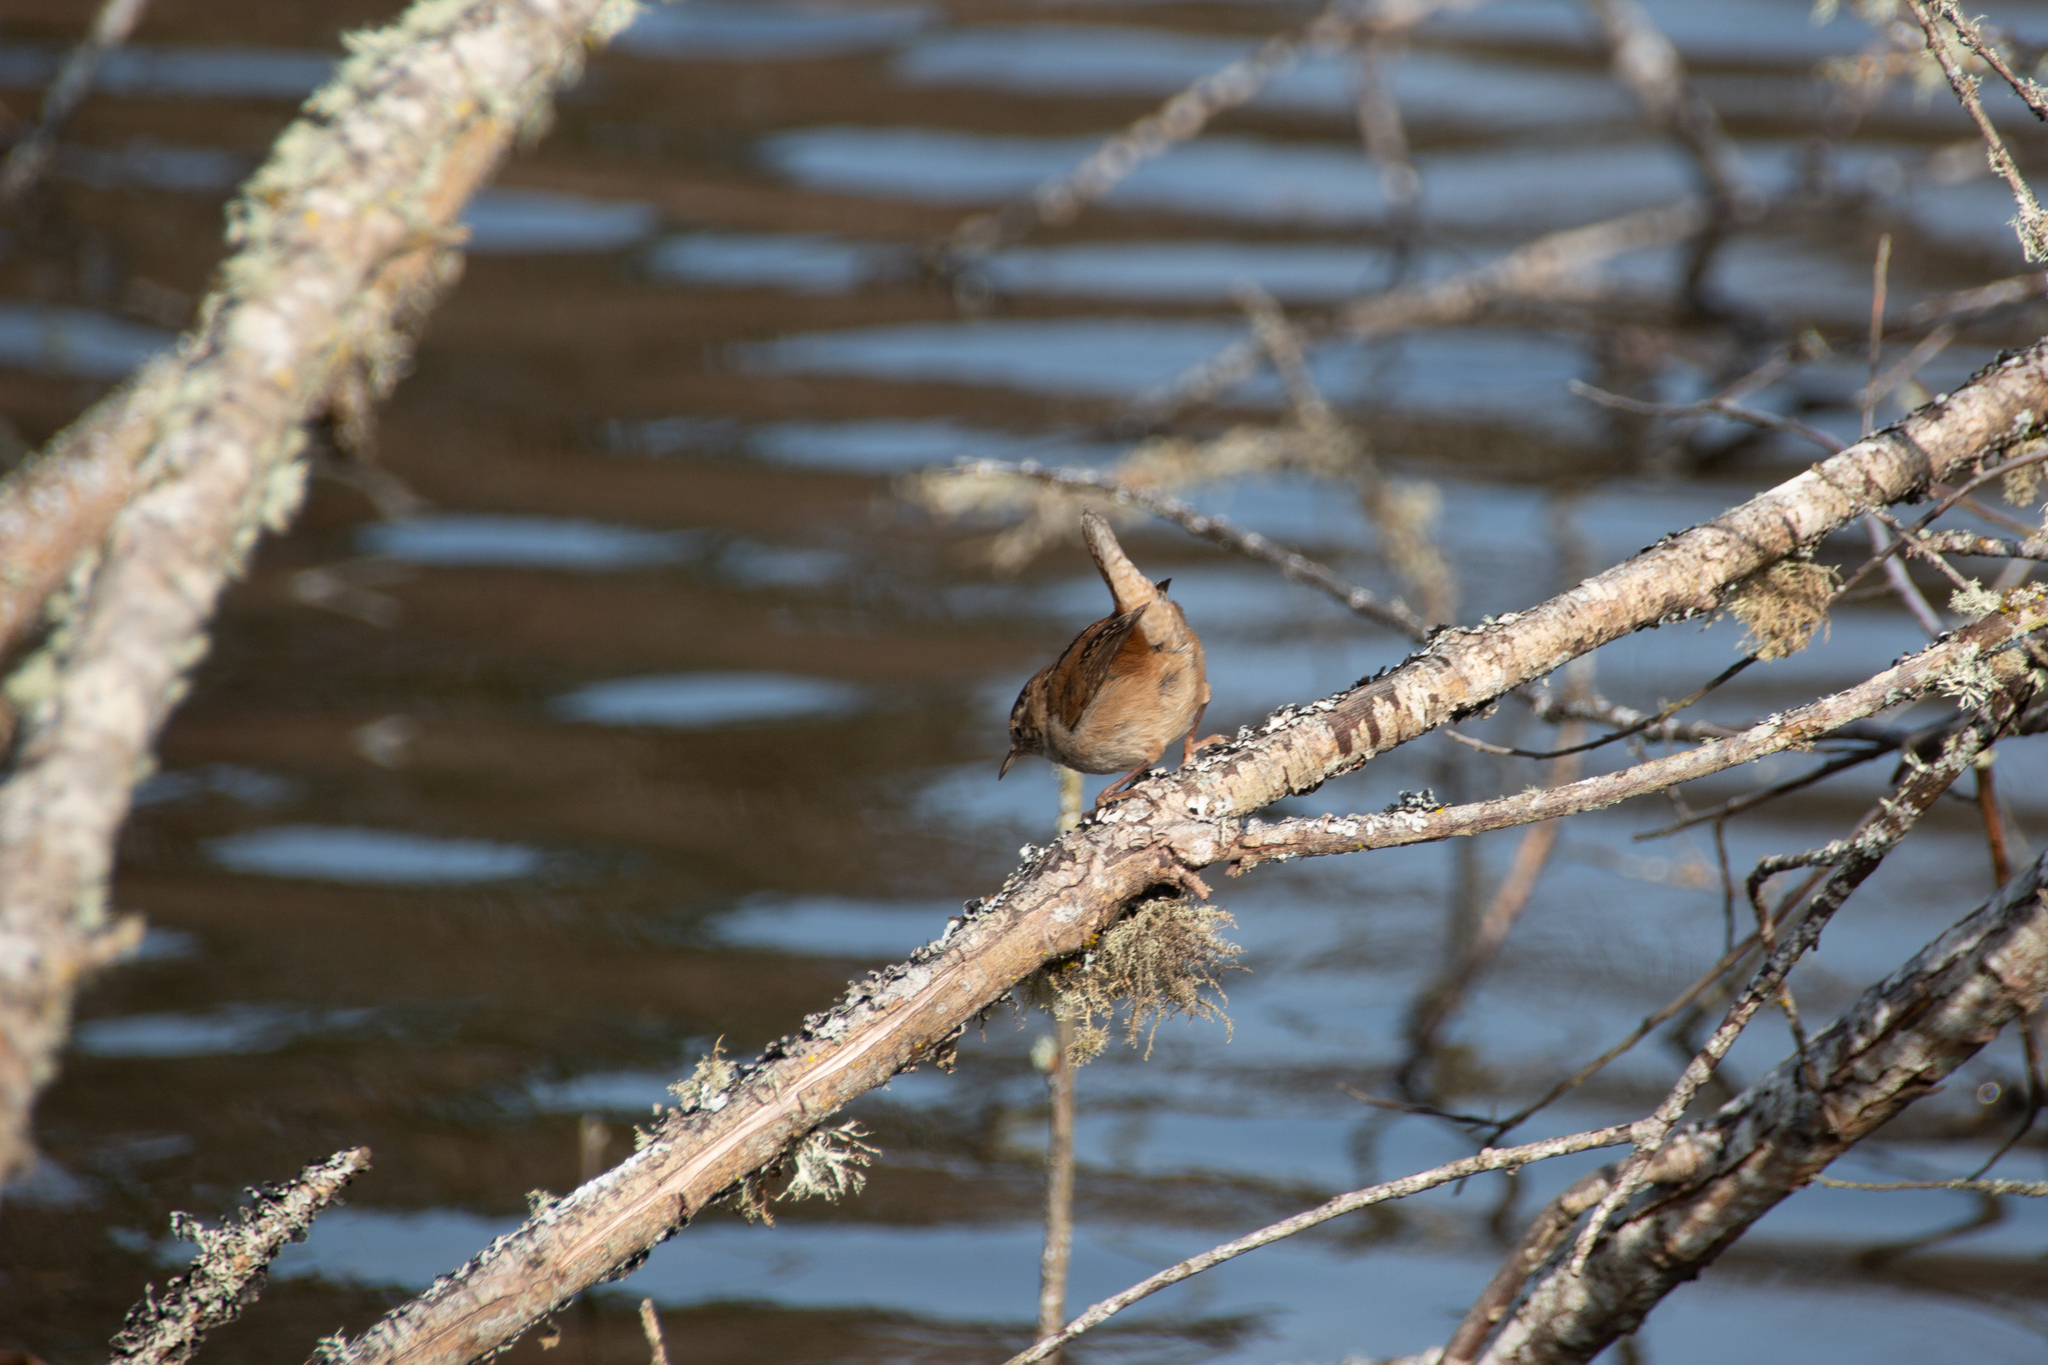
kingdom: Animalia
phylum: Chordata
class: Aves
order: Passeriformes
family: Troglodytidae
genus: Cistothorus
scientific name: Cistothorus palustris
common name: Marsh wren
